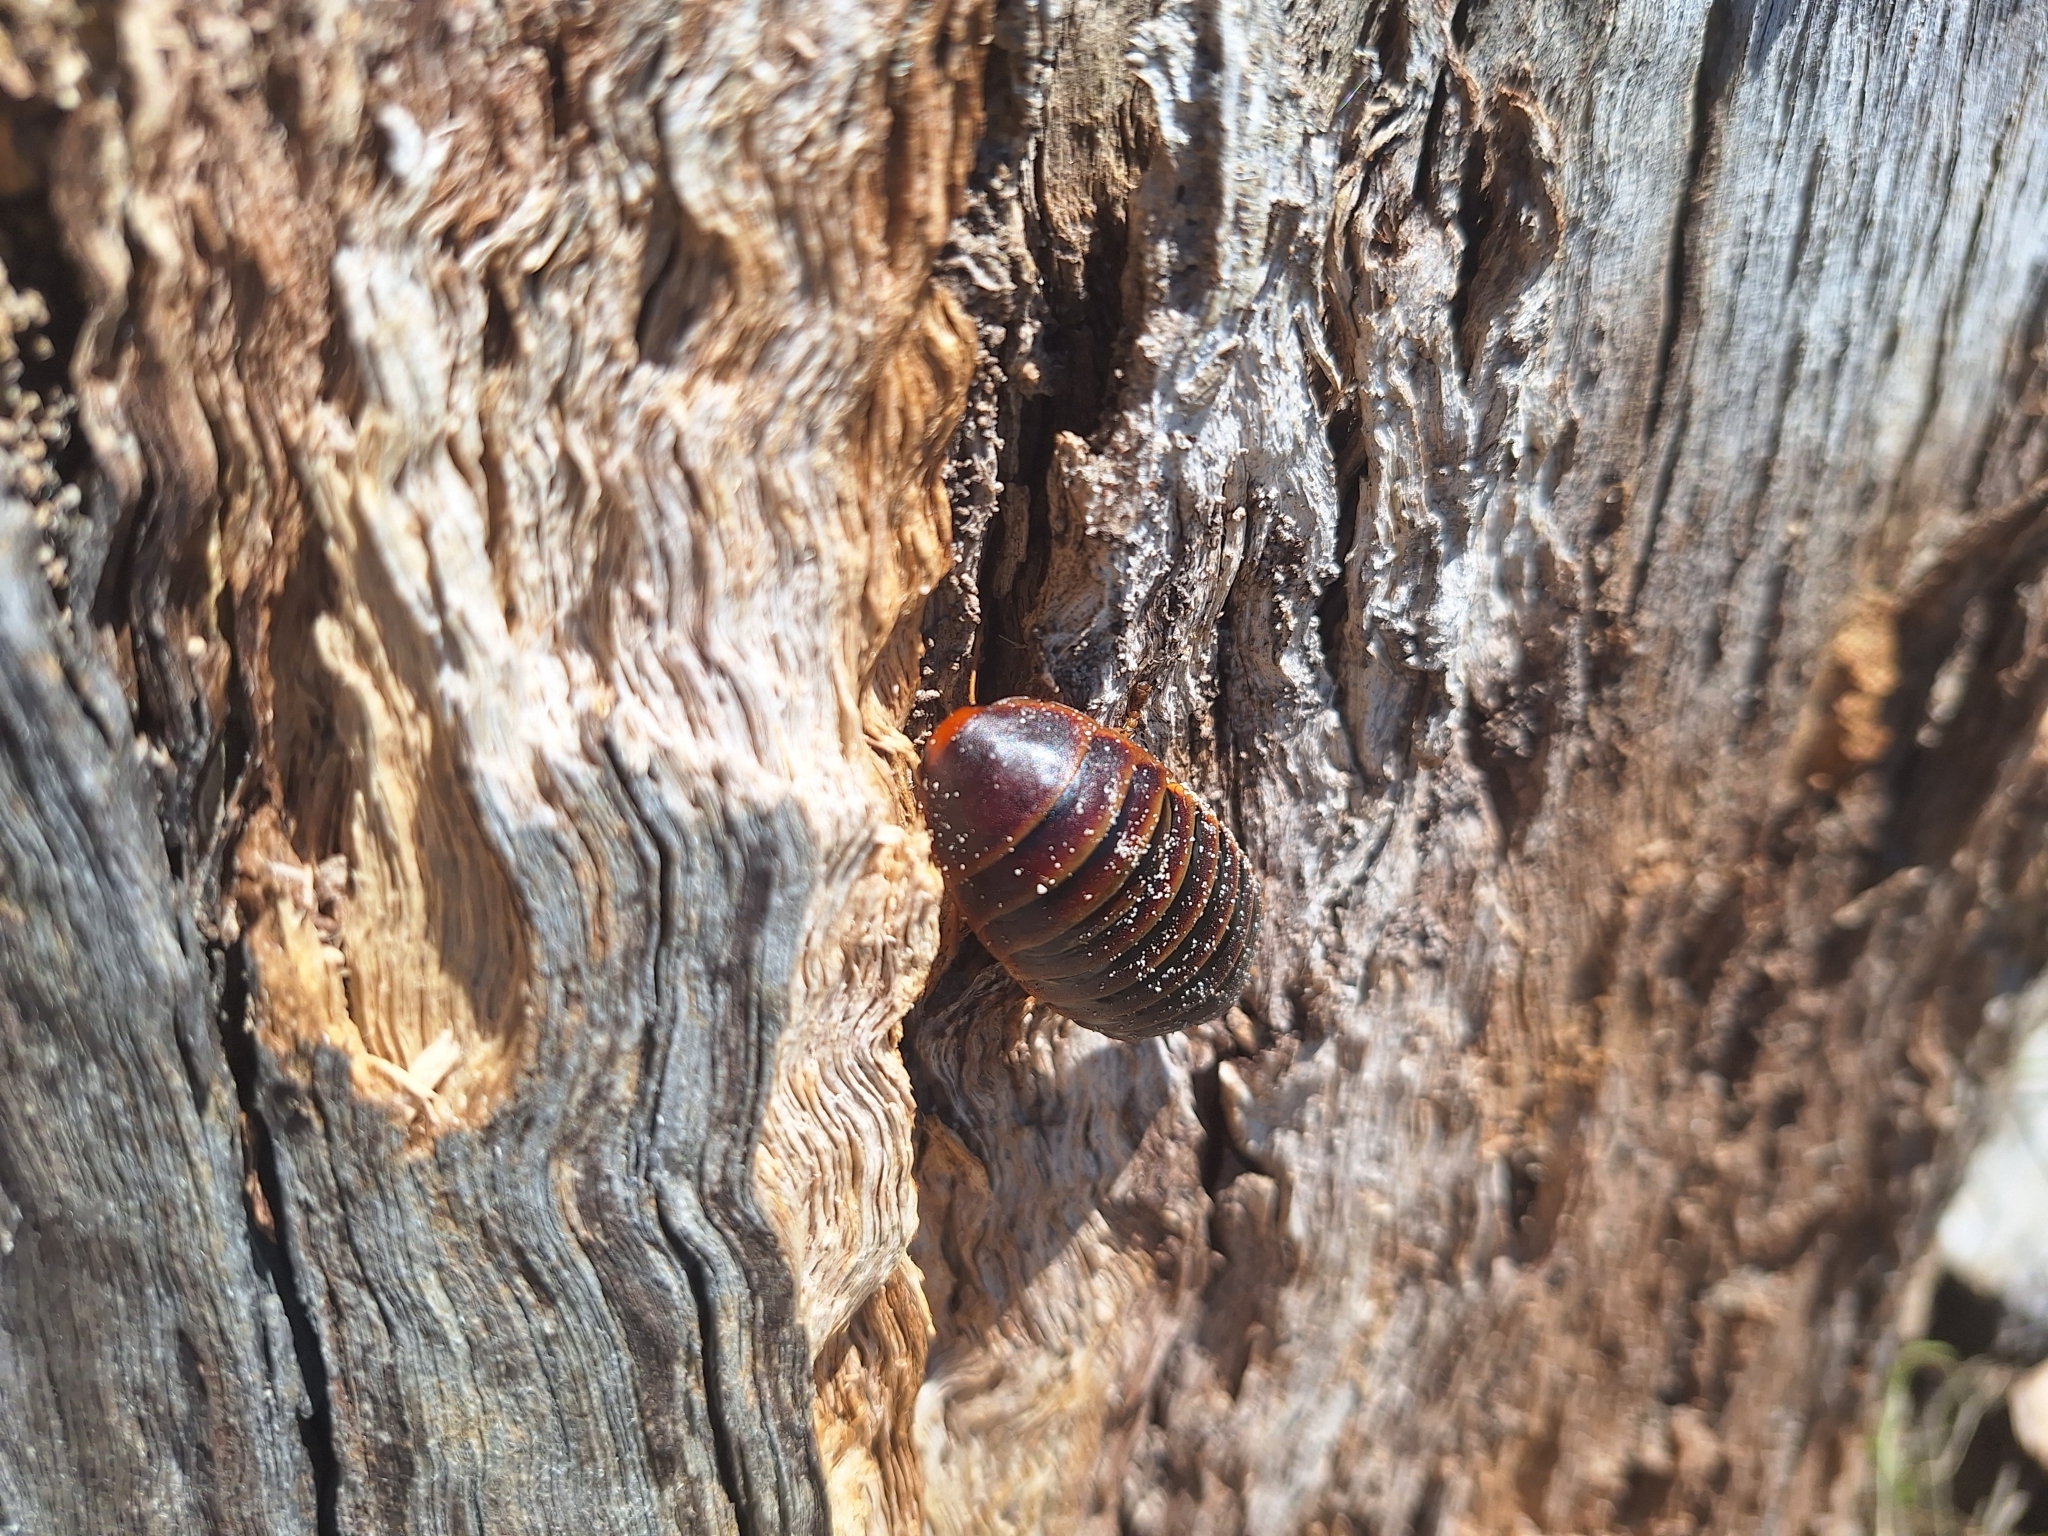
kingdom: Animalia
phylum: Arthropoda
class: Insecta
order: Blattodea
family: Blaberidae
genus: Aptera
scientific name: Aptera fusca
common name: Cape mountain cockroach
